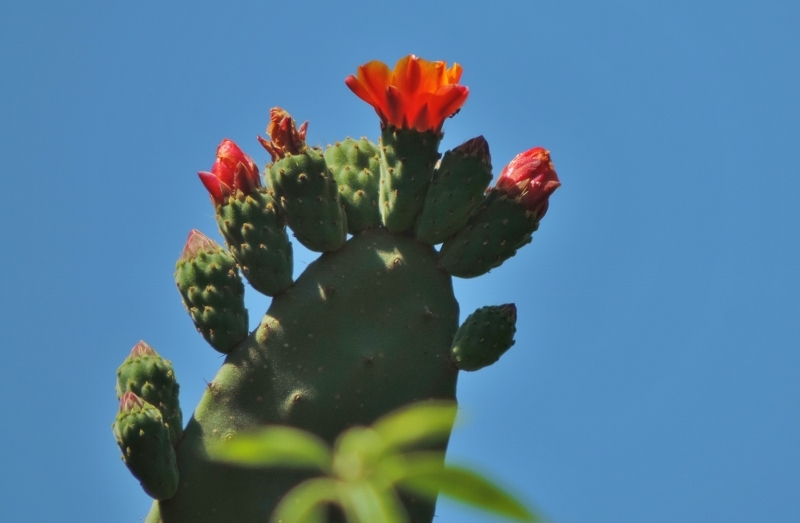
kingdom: Plantae
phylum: Tracheophyta
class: Magnoliopsida
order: Caryophyllales
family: Cactaceae
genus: Opuntia
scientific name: Opuntia ficus-indica
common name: Barbary fig
